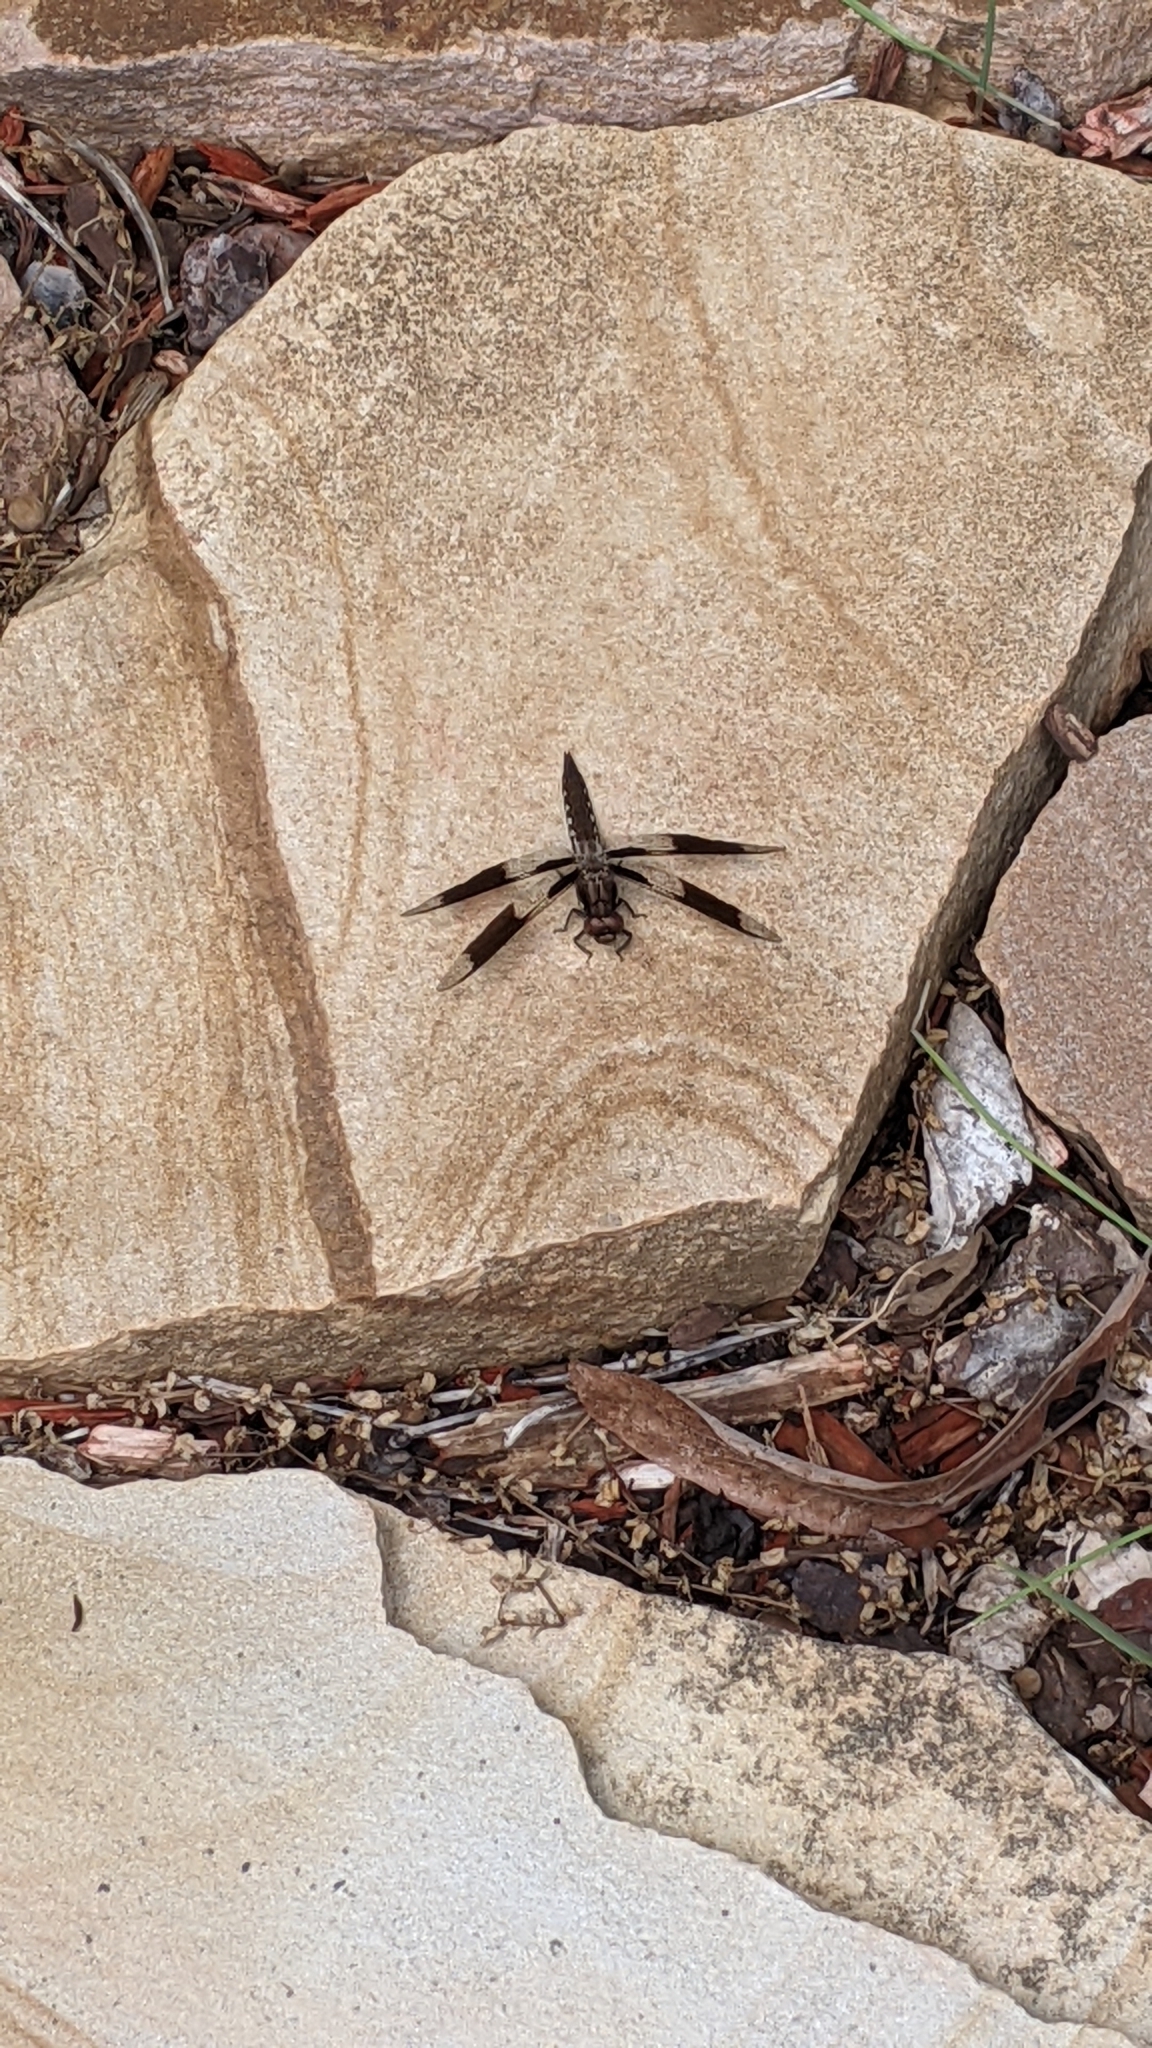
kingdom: Animalia
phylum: Arthropoda
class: Insecta
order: Odonata
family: Libellulidae
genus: Plathemis
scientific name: Plathemis lydia
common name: Common whitetail
